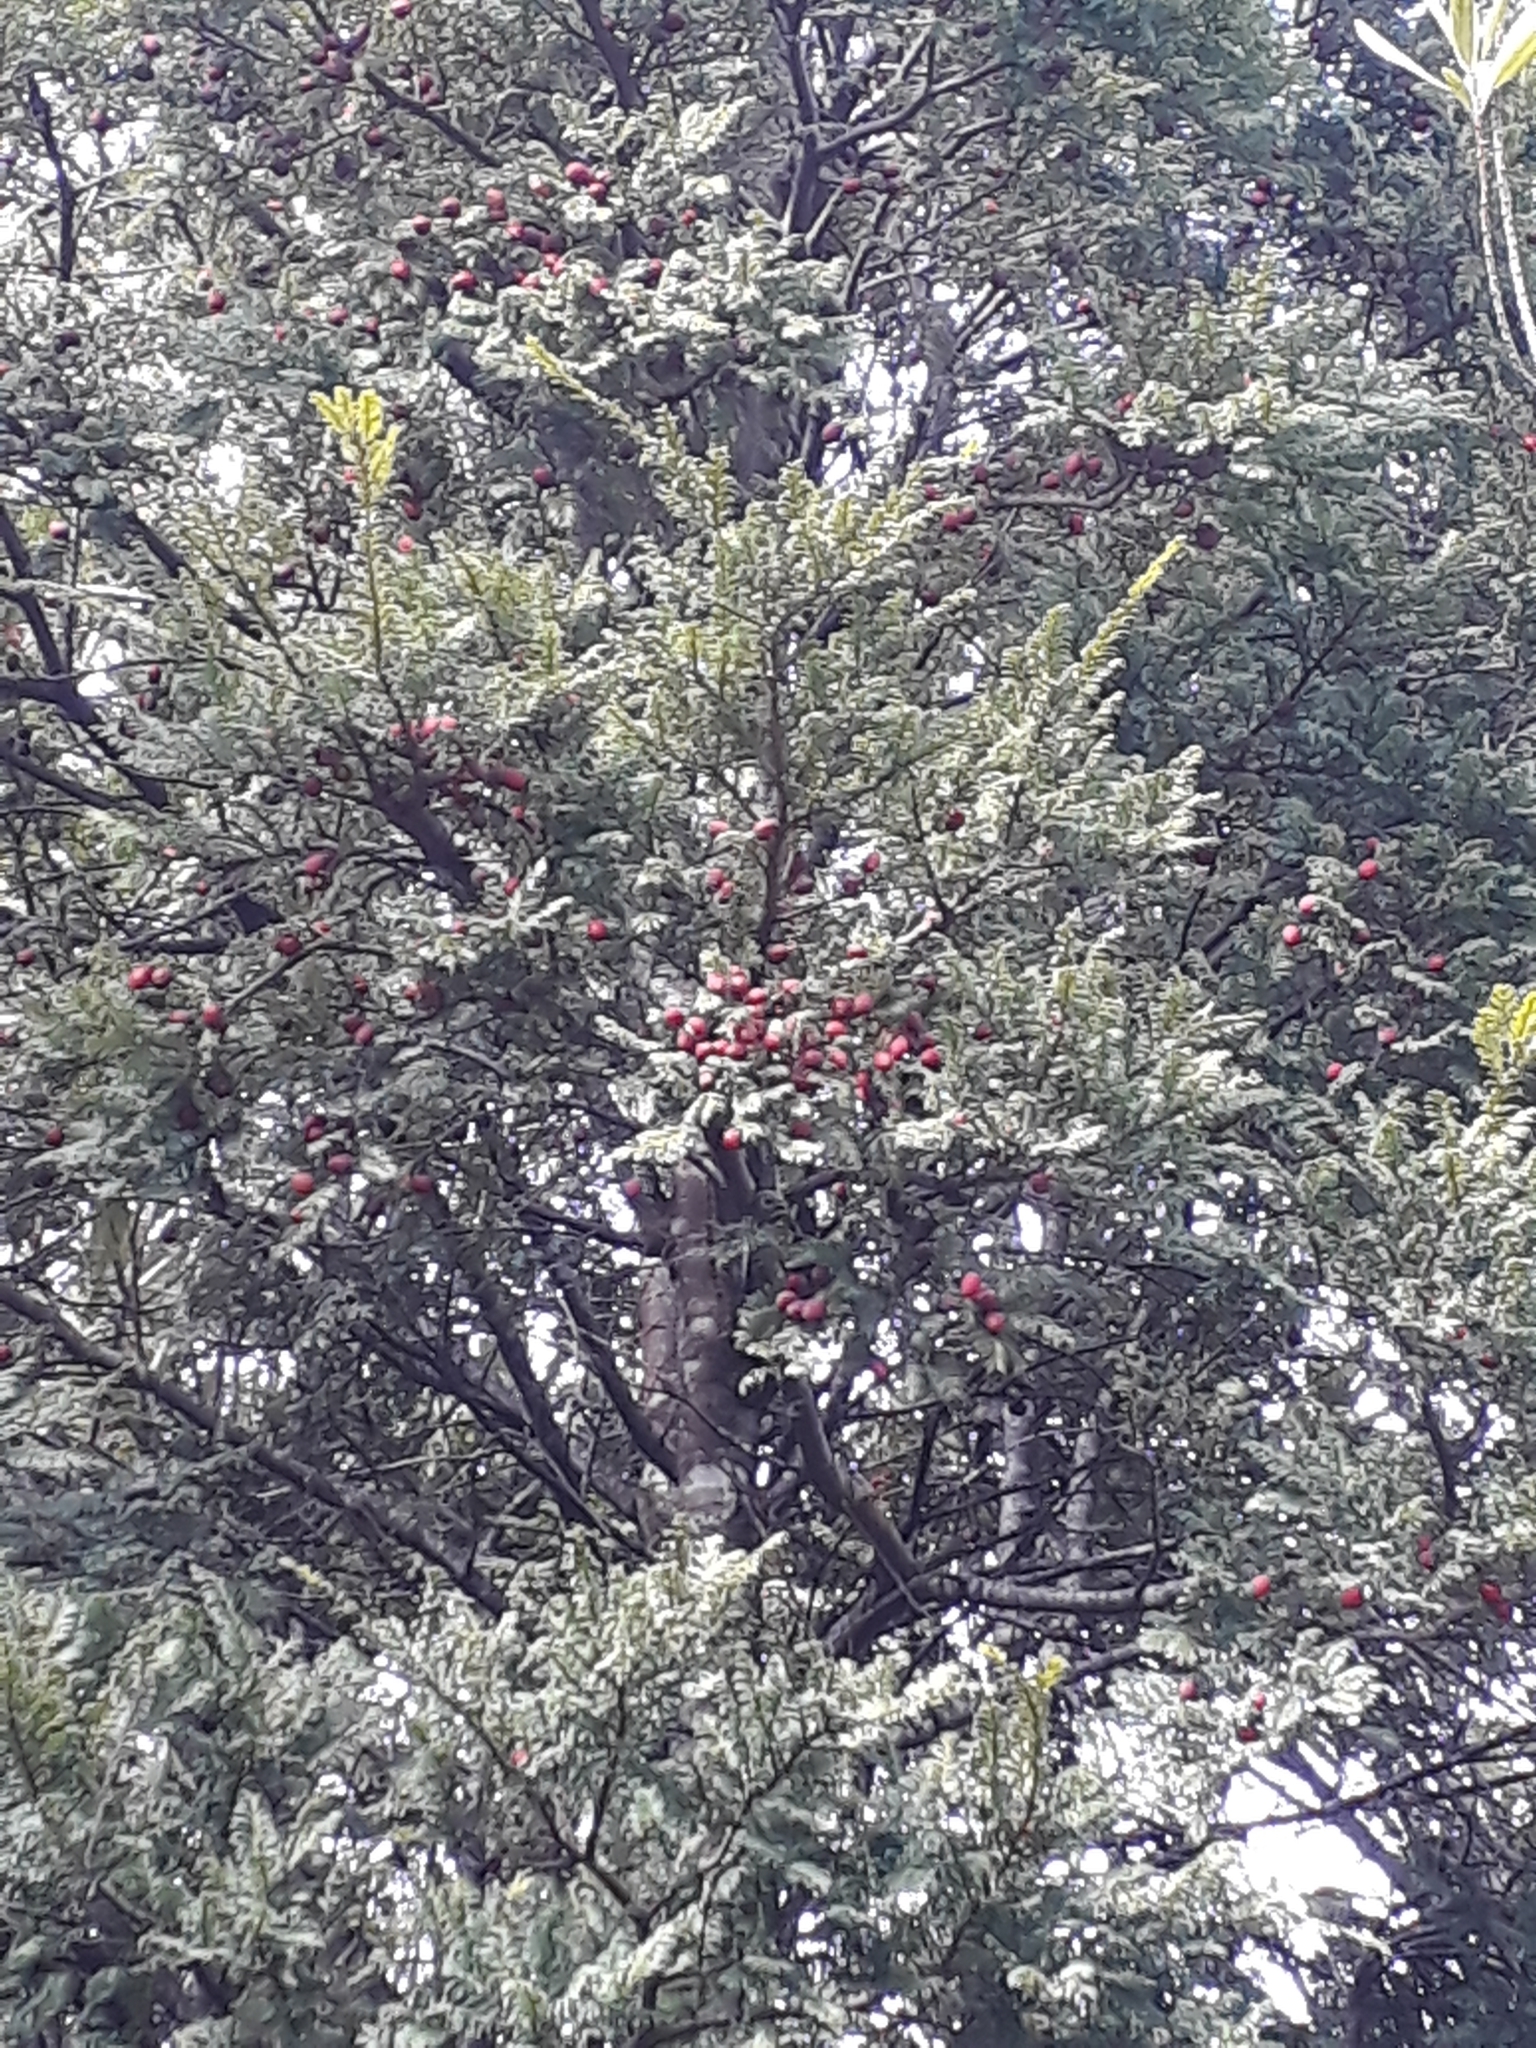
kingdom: Plantae
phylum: Tracheophyta
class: Pinopsida
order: Pinales
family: Podocarpaceae
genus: Prumnopitys
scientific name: Prumnopitys ferruginea
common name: Brown pine
